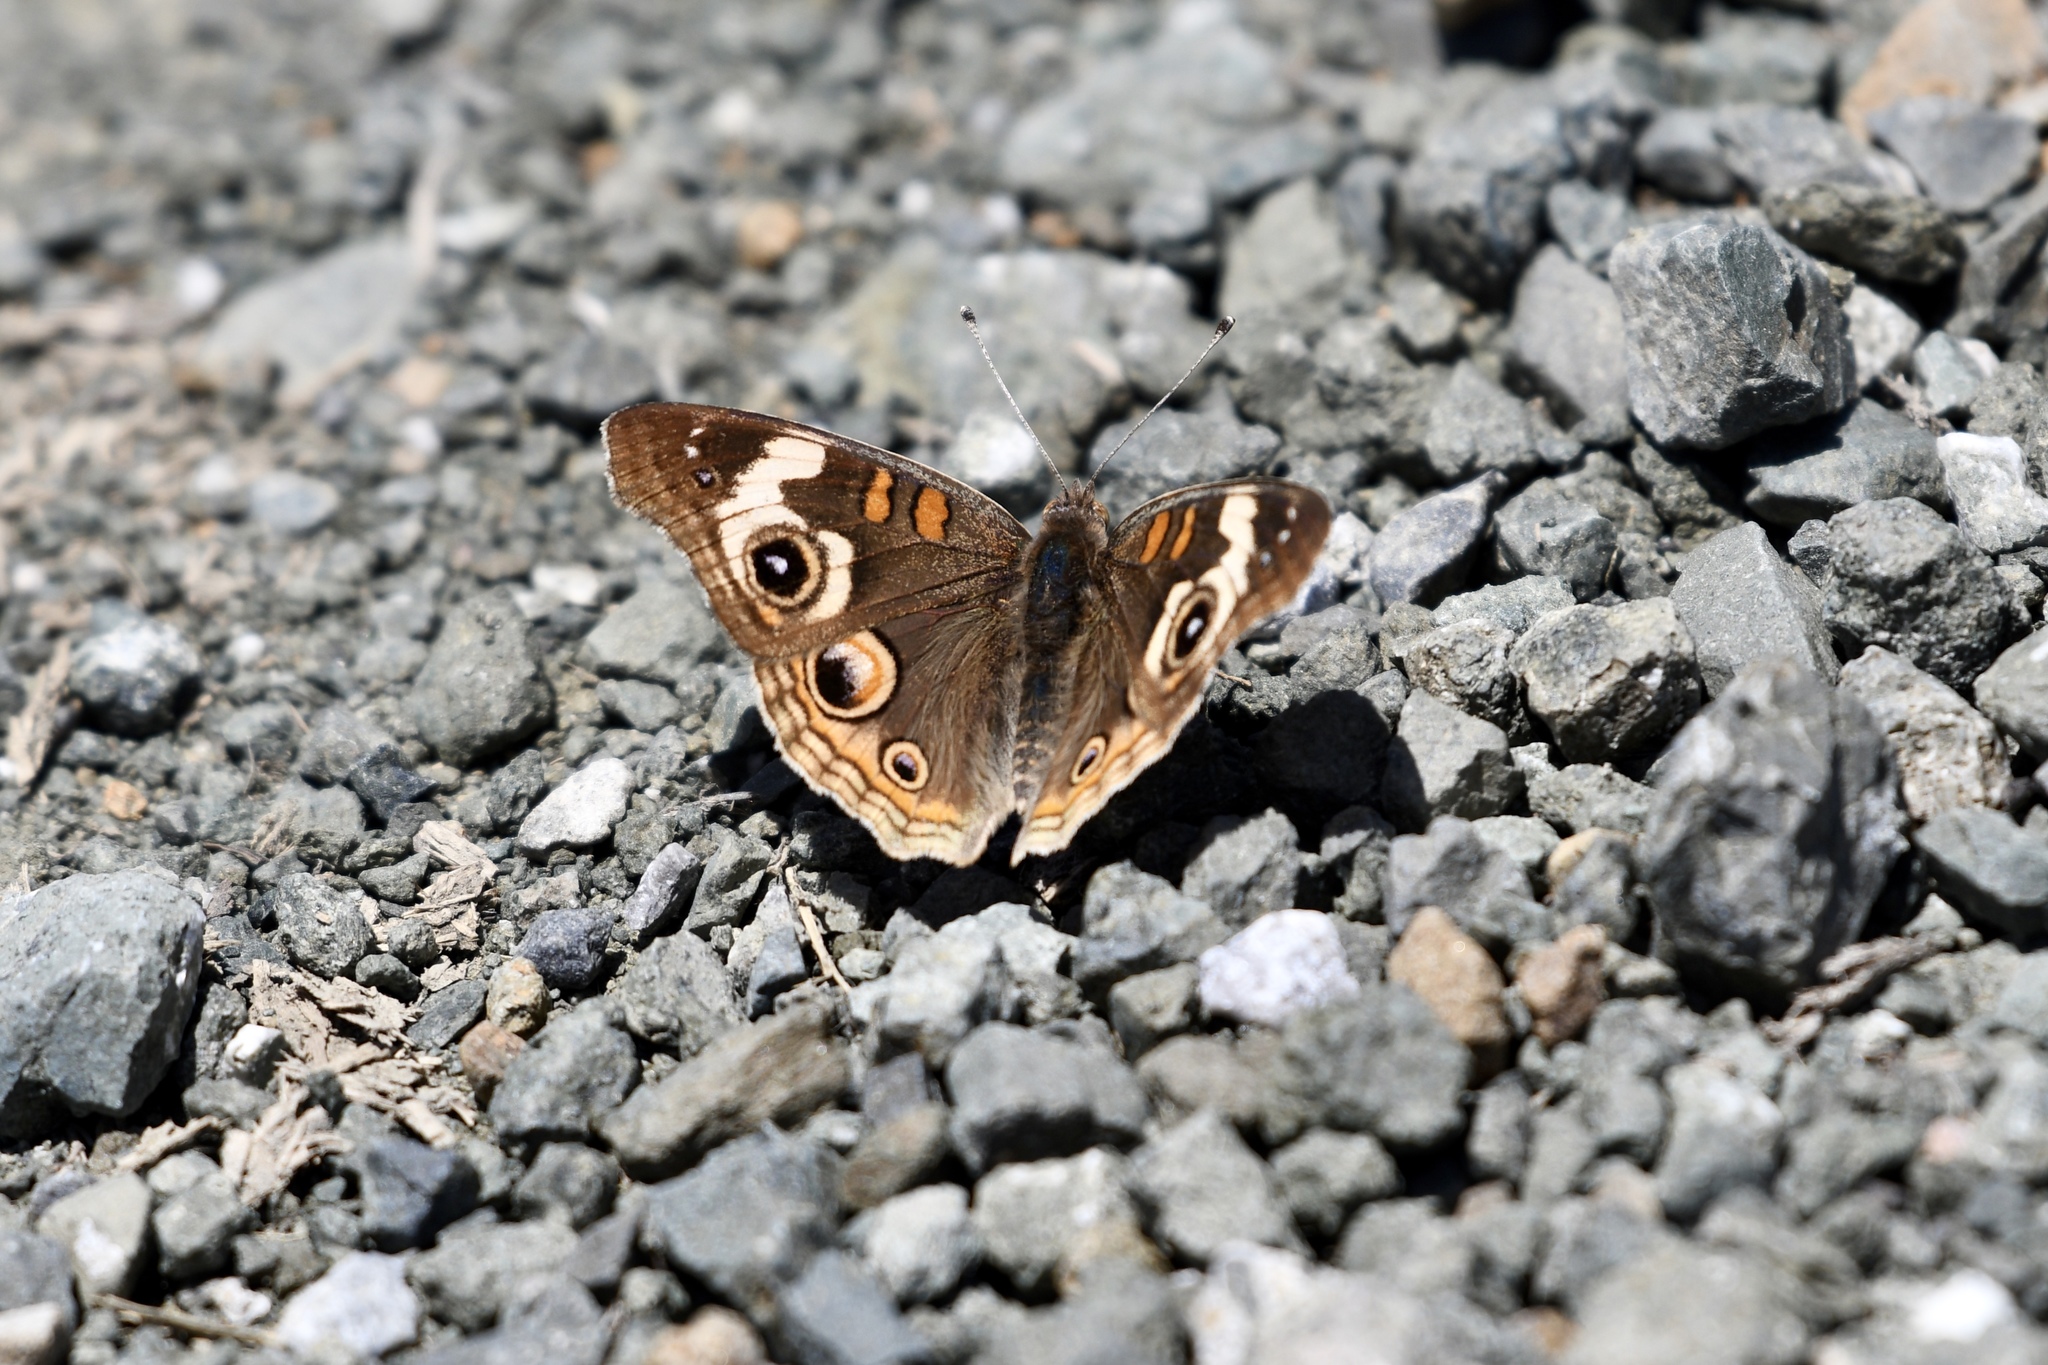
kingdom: Animalia
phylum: Arthropoda
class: Insecta
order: Lepidoptera
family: Nymphalidae
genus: Junonia
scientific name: Junonia grisea
